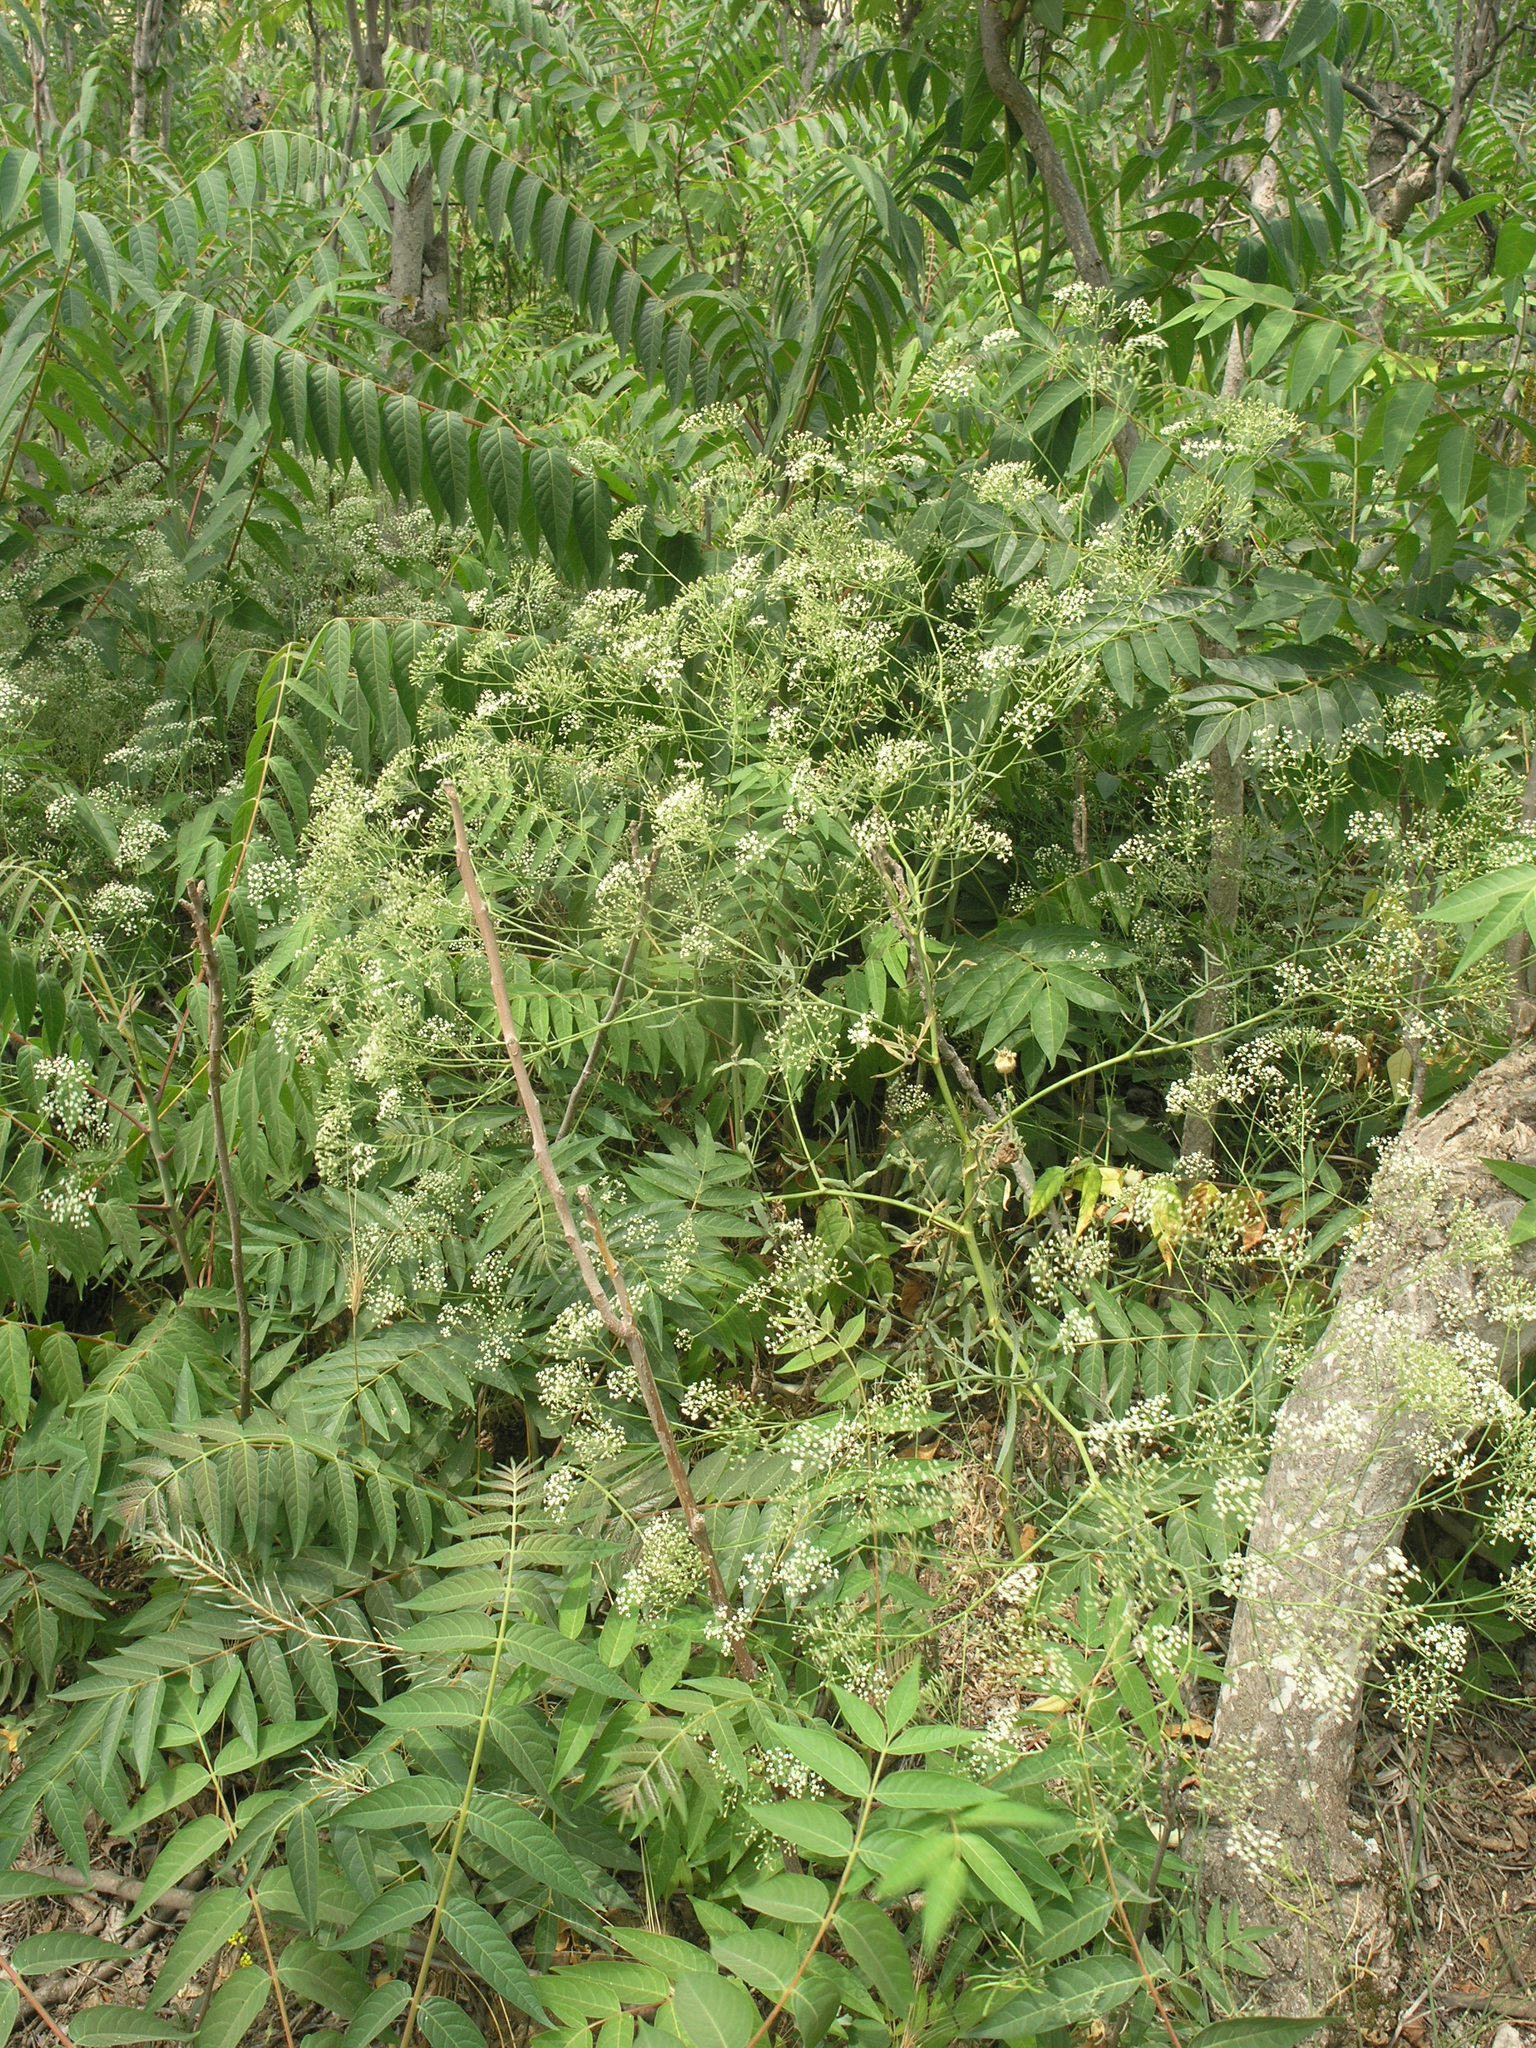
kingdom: Plantae
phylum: Tracheophyta
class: Magnoliopsida
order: Apiales
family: Apiaceae
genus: Falcaria
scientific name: Falcaria vulgaris
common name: Longleaf
